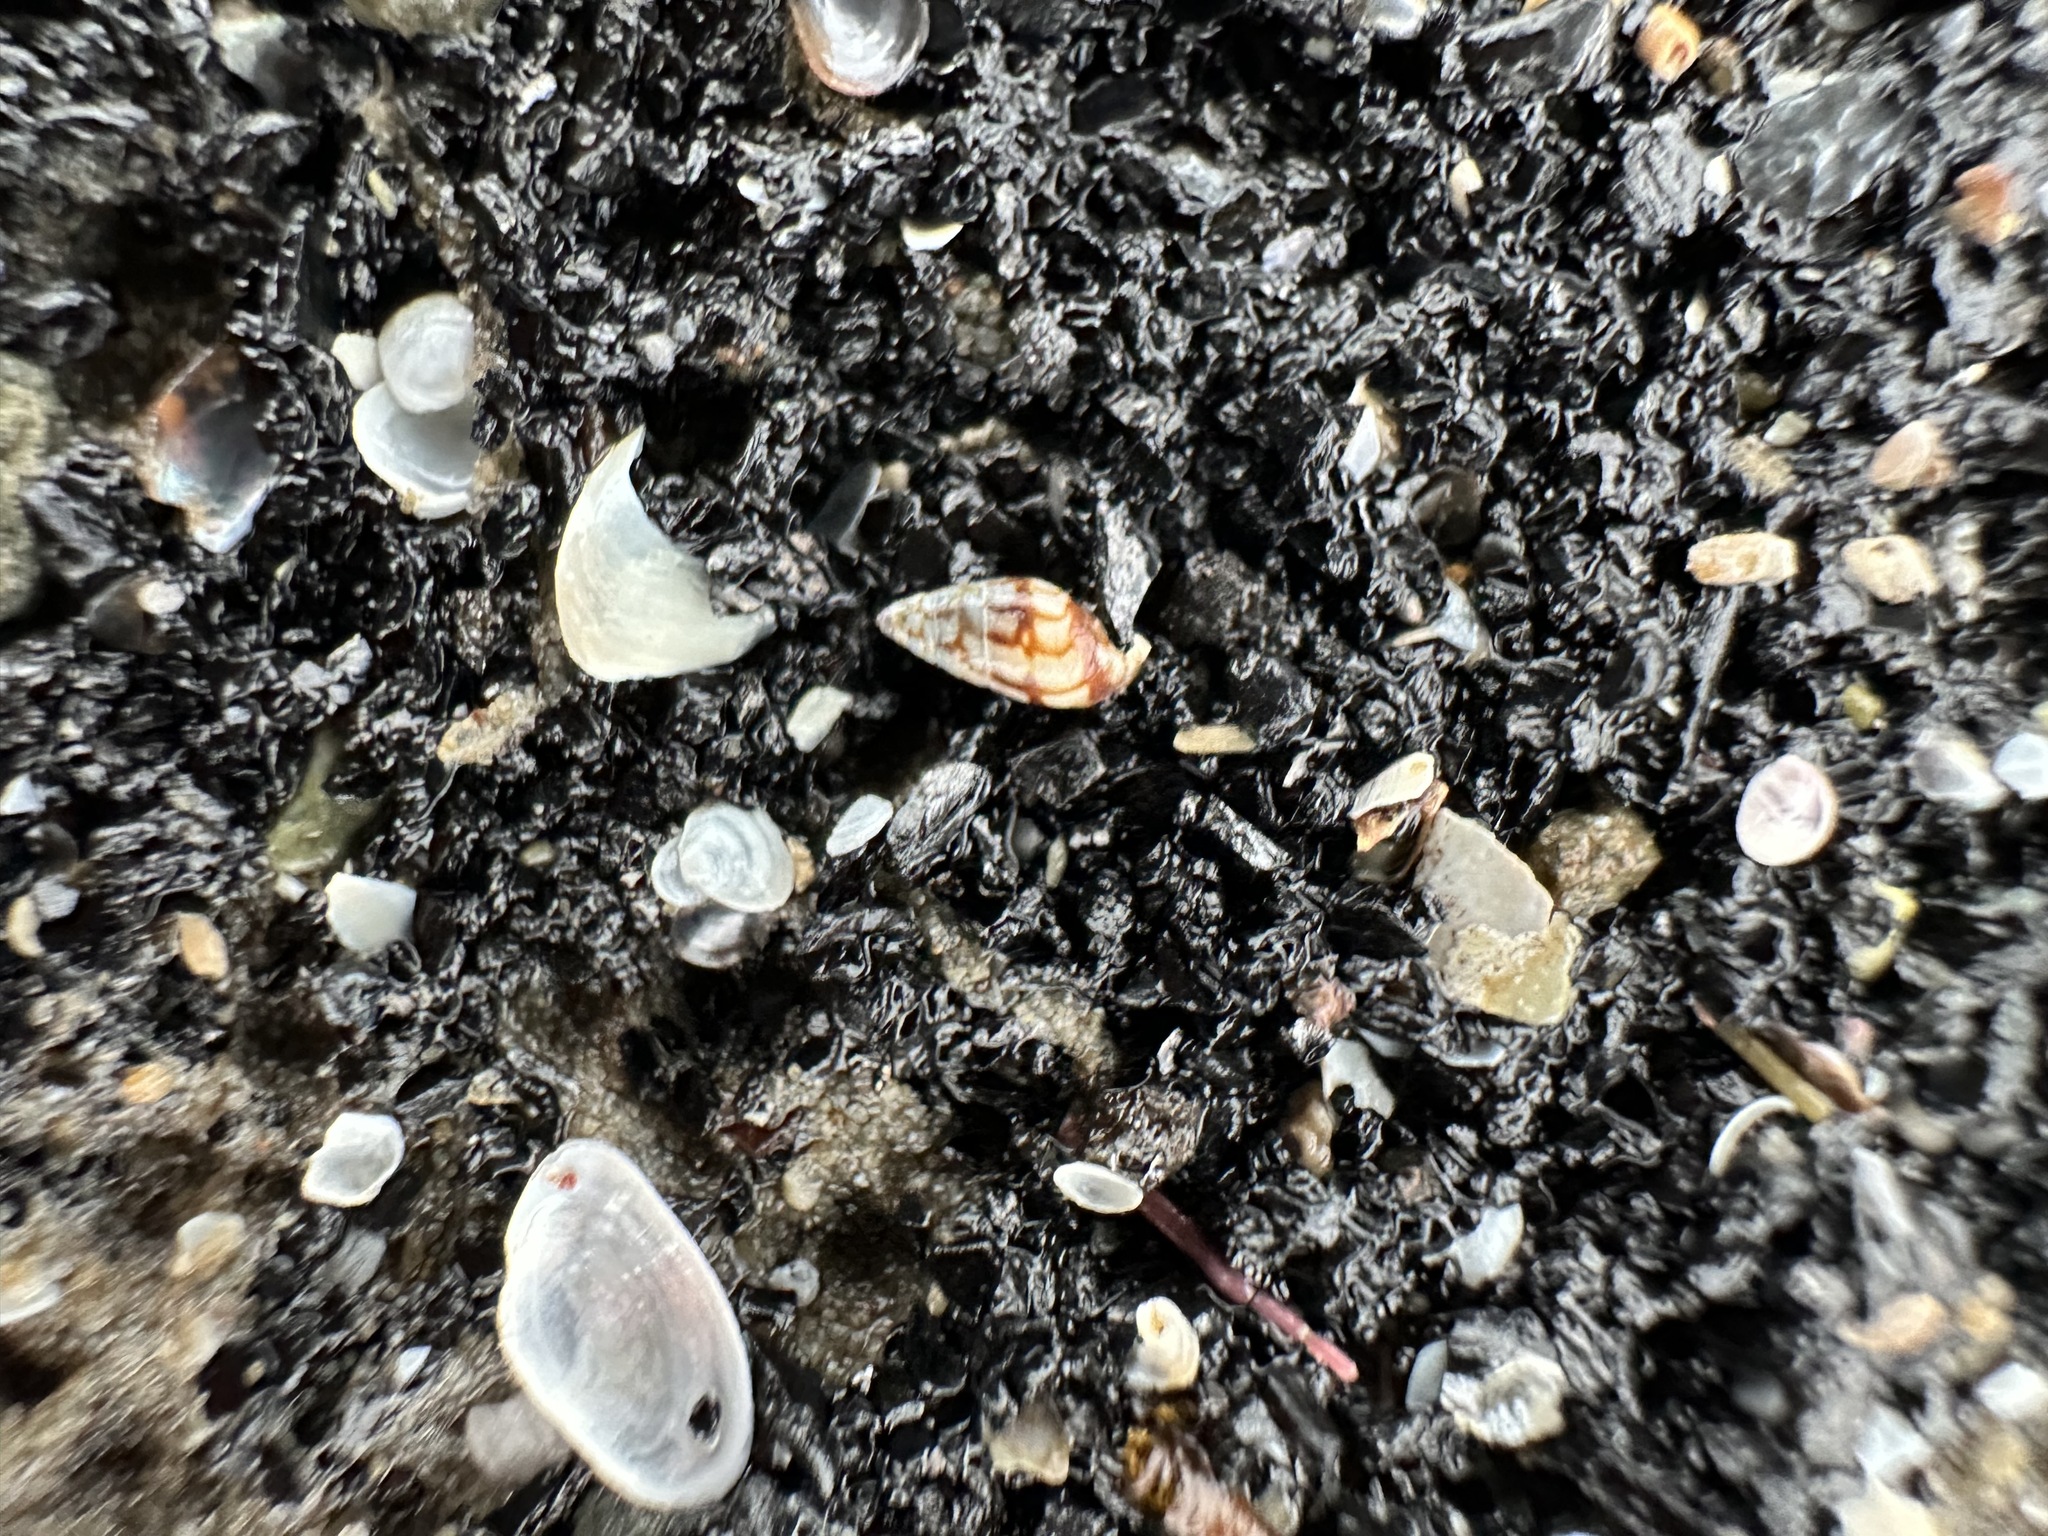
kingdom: Animalia
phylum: Mollusca
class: Gastropoda
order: Neogastropoda
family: Columbellidae
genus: Astyris
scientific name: Astyris lunata
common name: Lunar dovesnail
